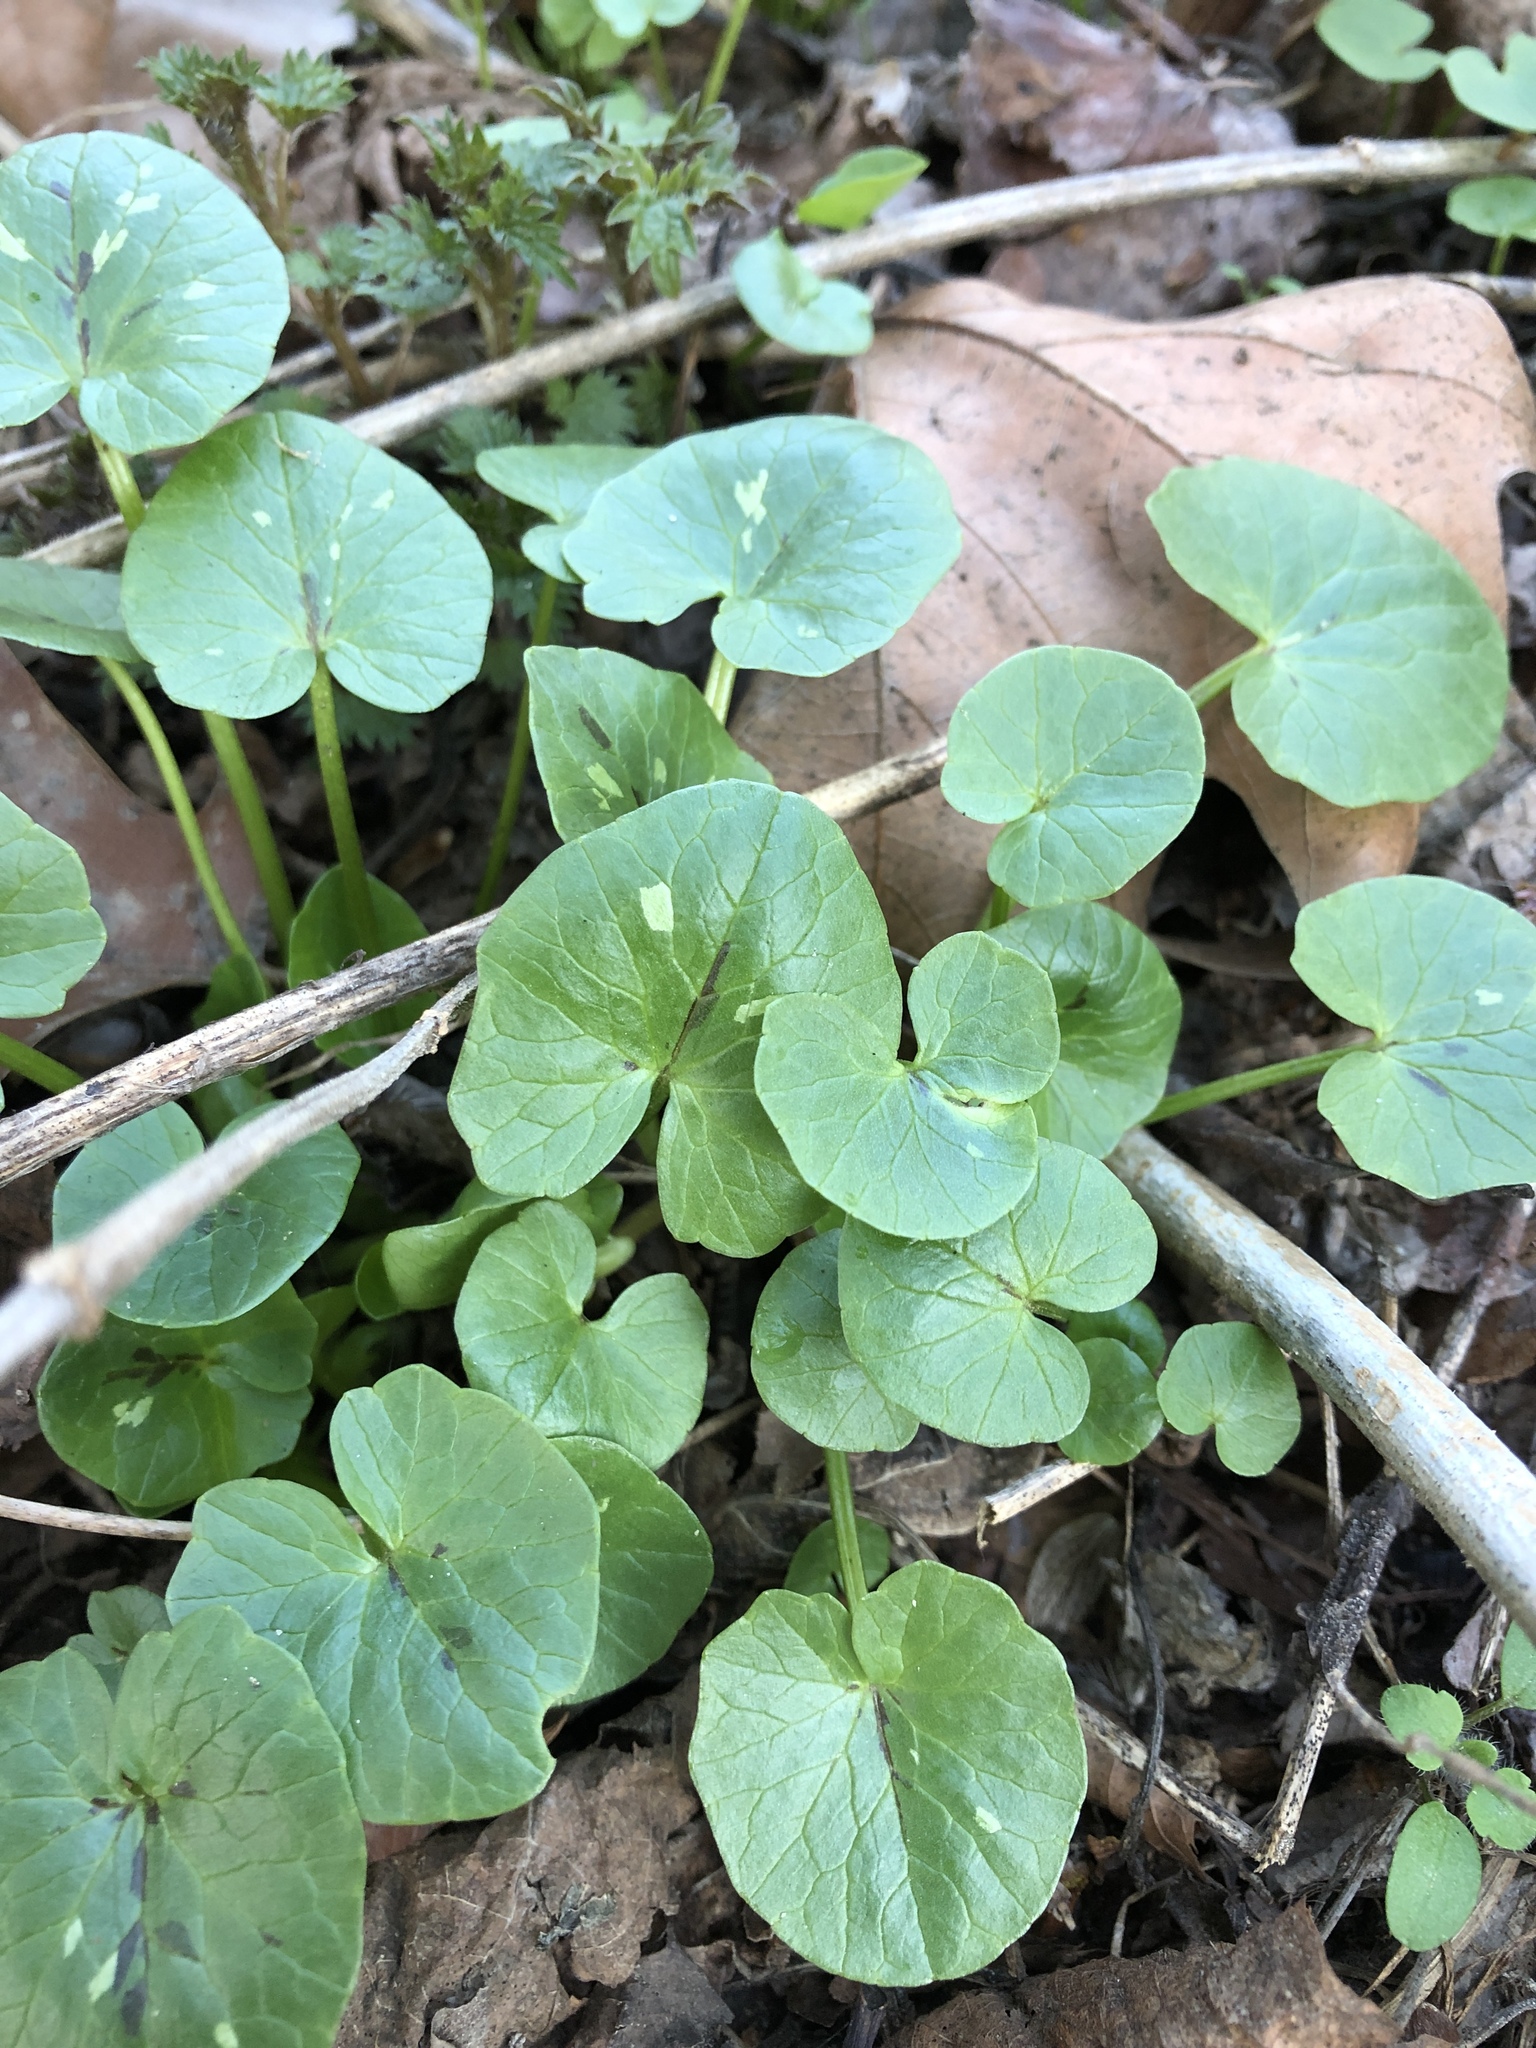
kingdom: Plantae
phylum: Tracheophyta
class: Magnoliopsida
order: Ranunculales
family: Ranunculaceae
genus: Ficaria
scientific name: Ficaria verna
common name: Lesser celandine
